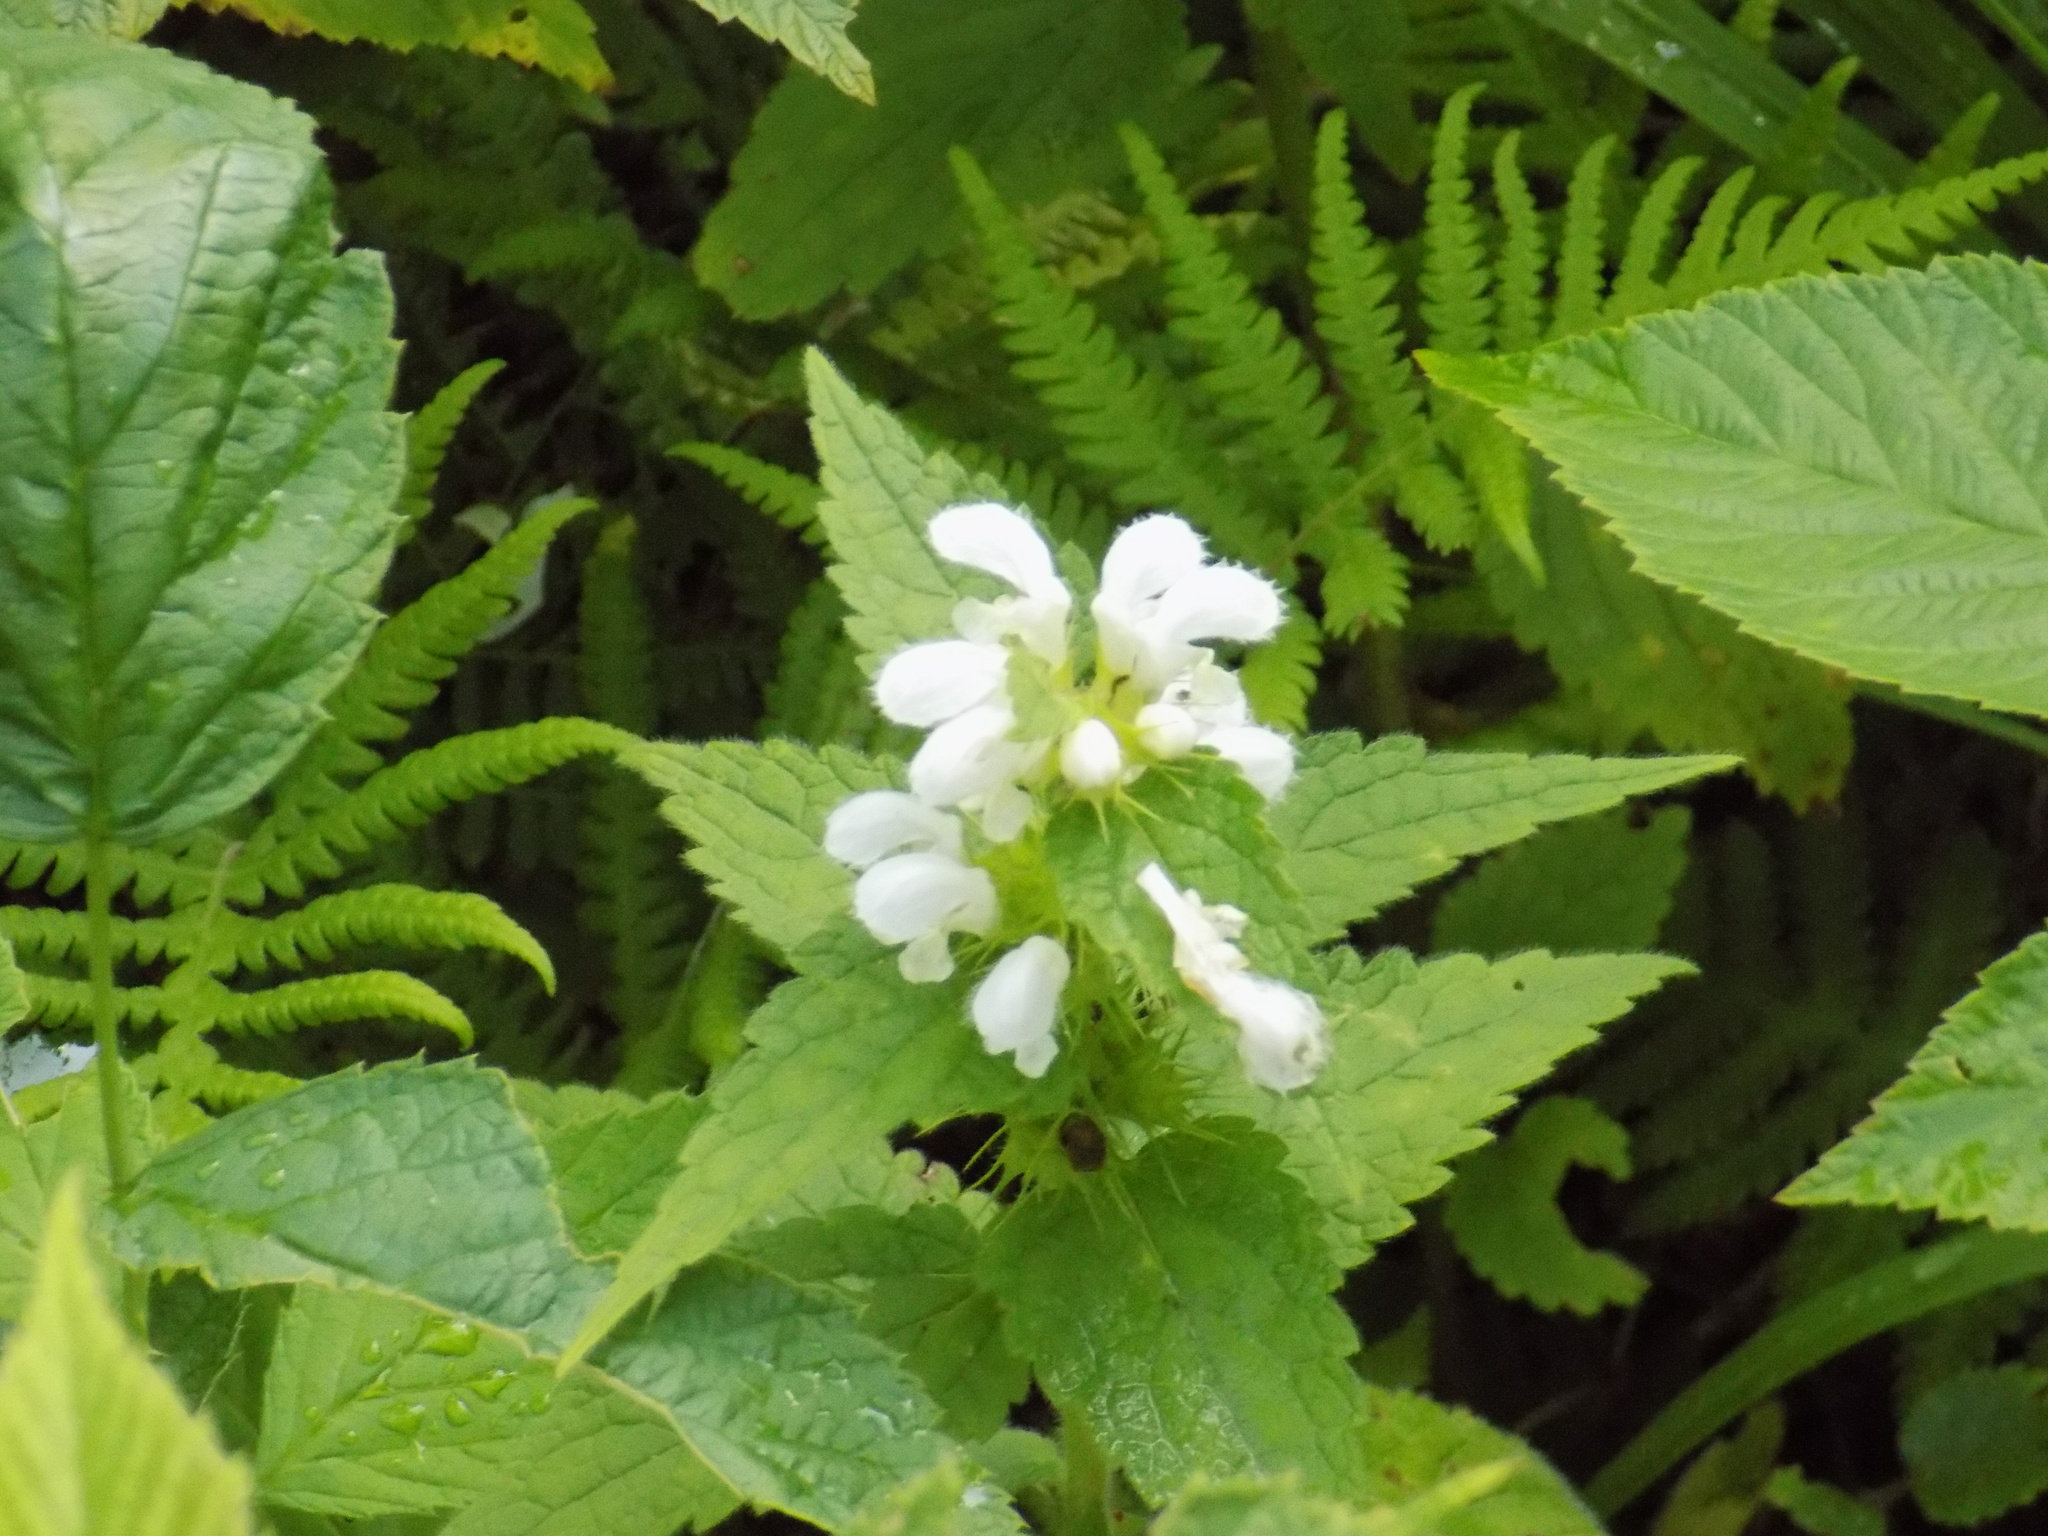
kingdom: Plantae
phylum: Tracheophyta
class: Magnoliopsida
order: Lamiales
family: Lamiaceae
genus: Lamium
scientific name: Lamium album
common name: White dead-nettle
